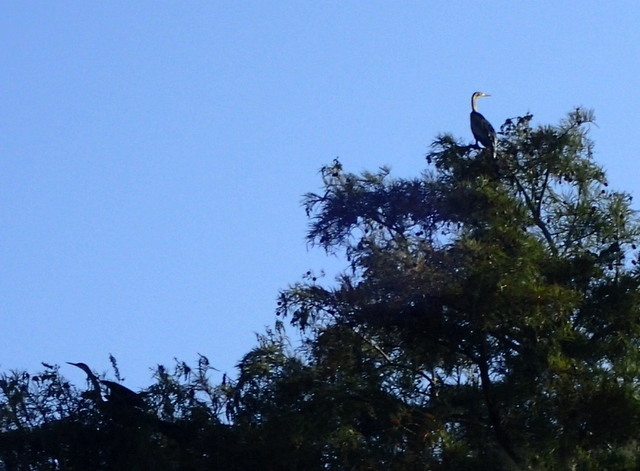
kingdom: Animalia
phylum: Chordata
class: Aves
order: Suliformes
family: Anhingidae
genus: Anhinga
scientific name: Anhinga anhinga
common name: Anhinga
